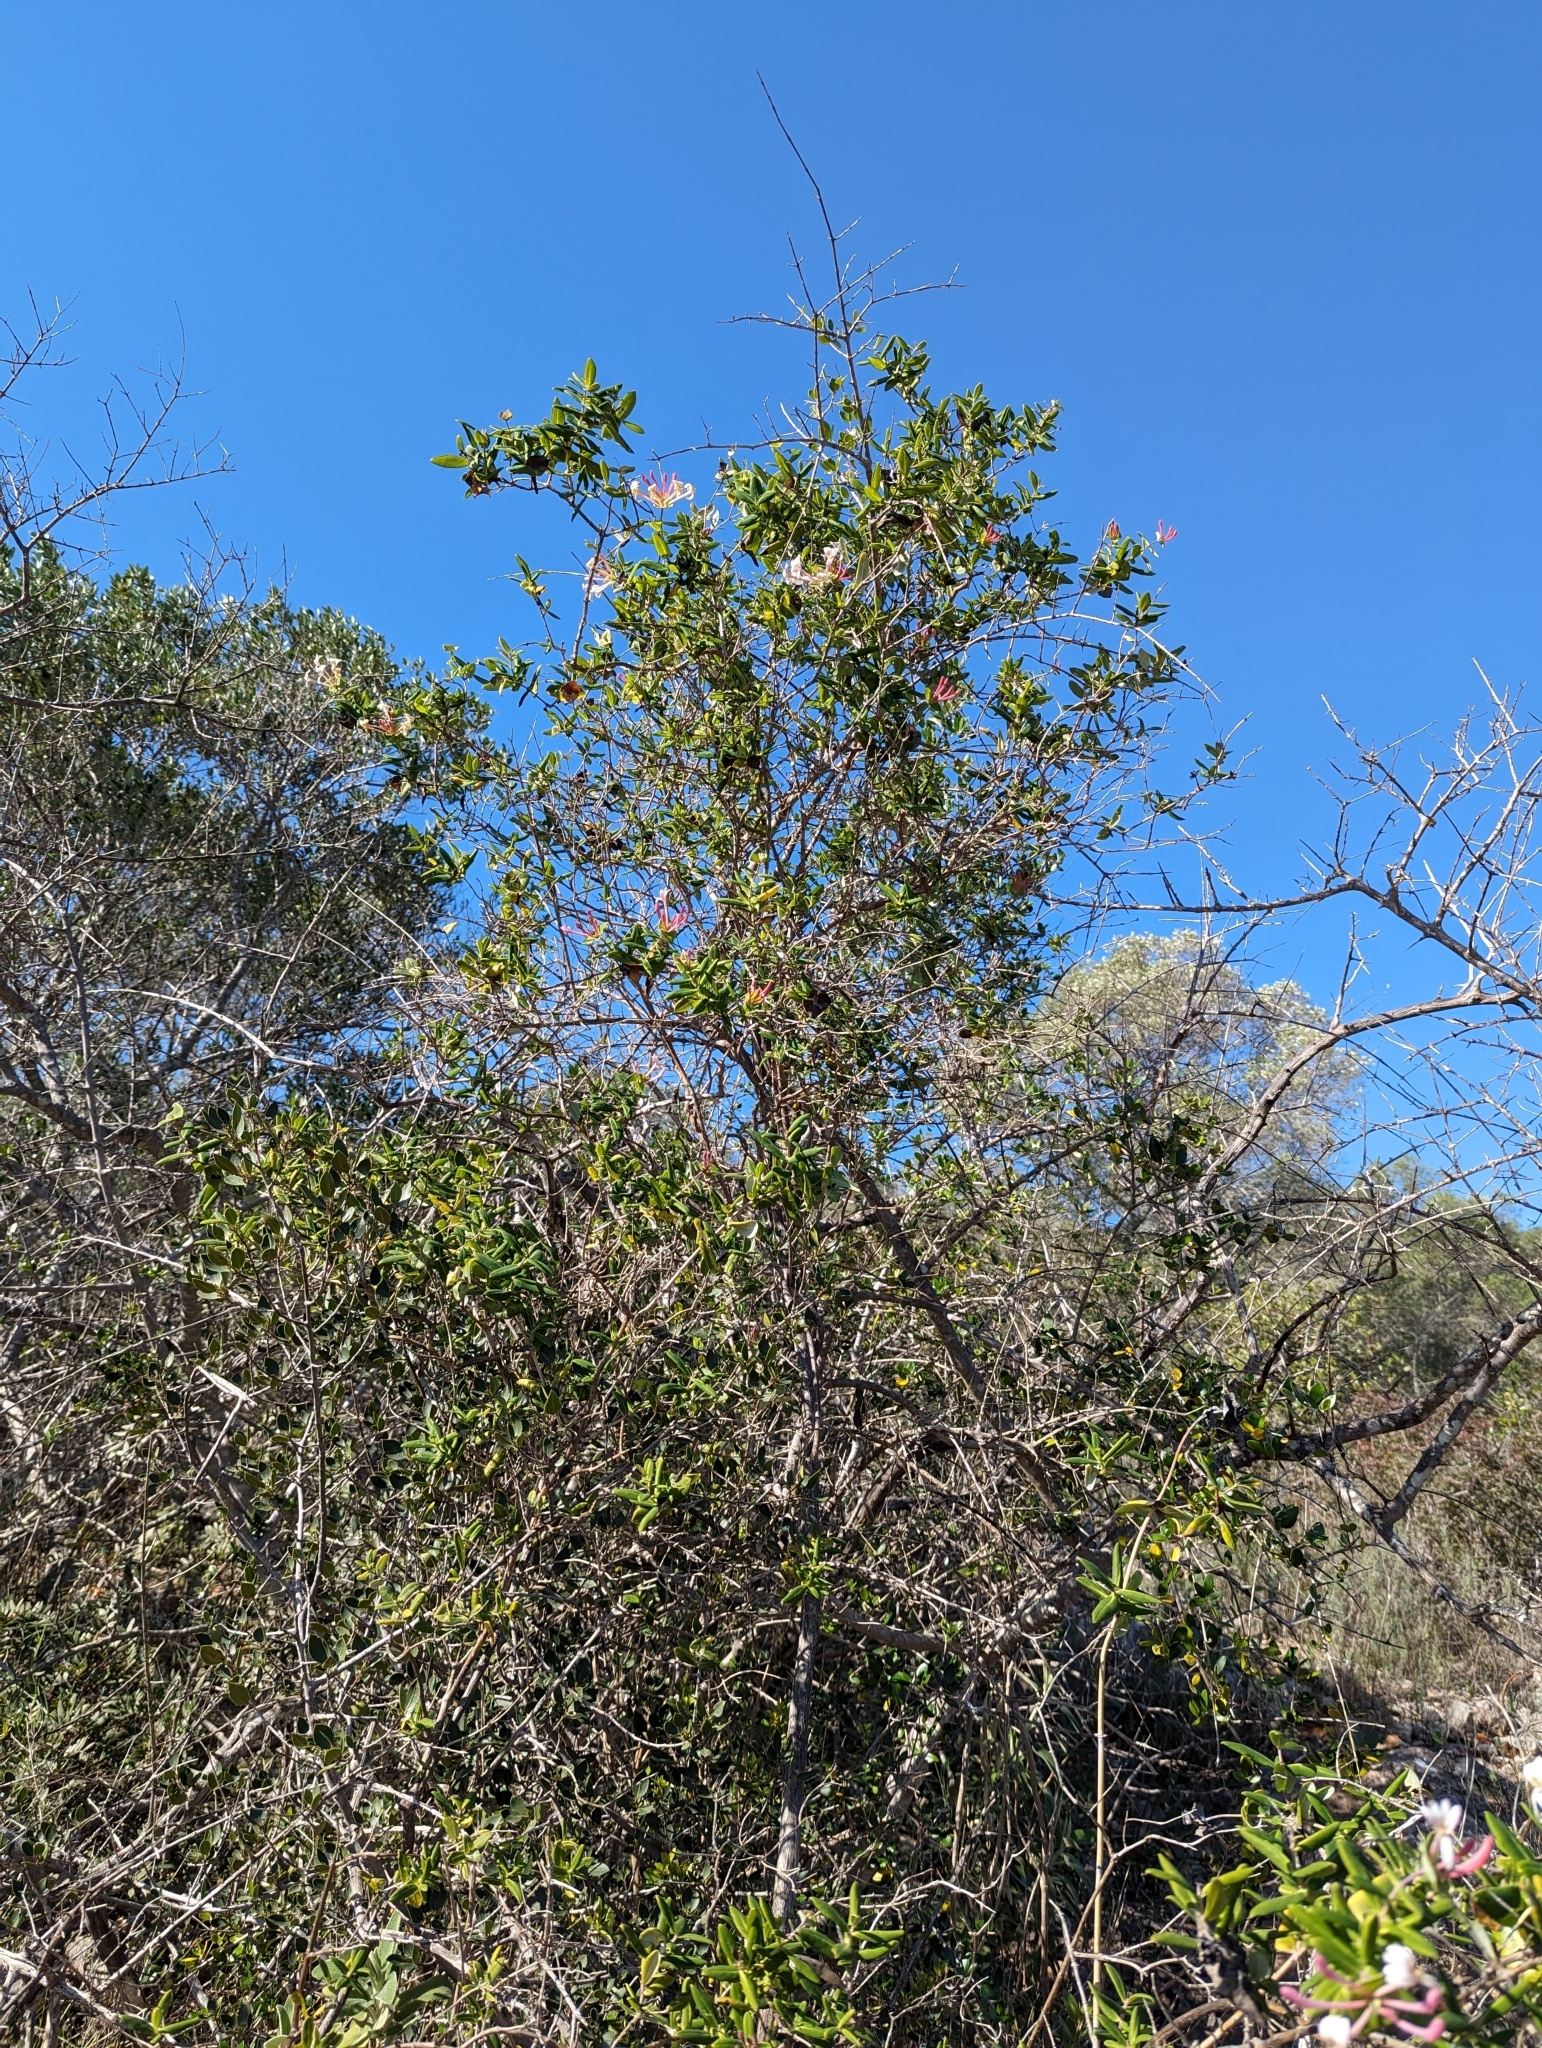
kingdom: Plantae
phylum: Tracheophyta
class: Magnoliopsida
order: Dipsacales
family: Caprifoliaceae
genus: Lonicera
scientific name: Lonicera implexa
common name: Minorca honeysuckle
